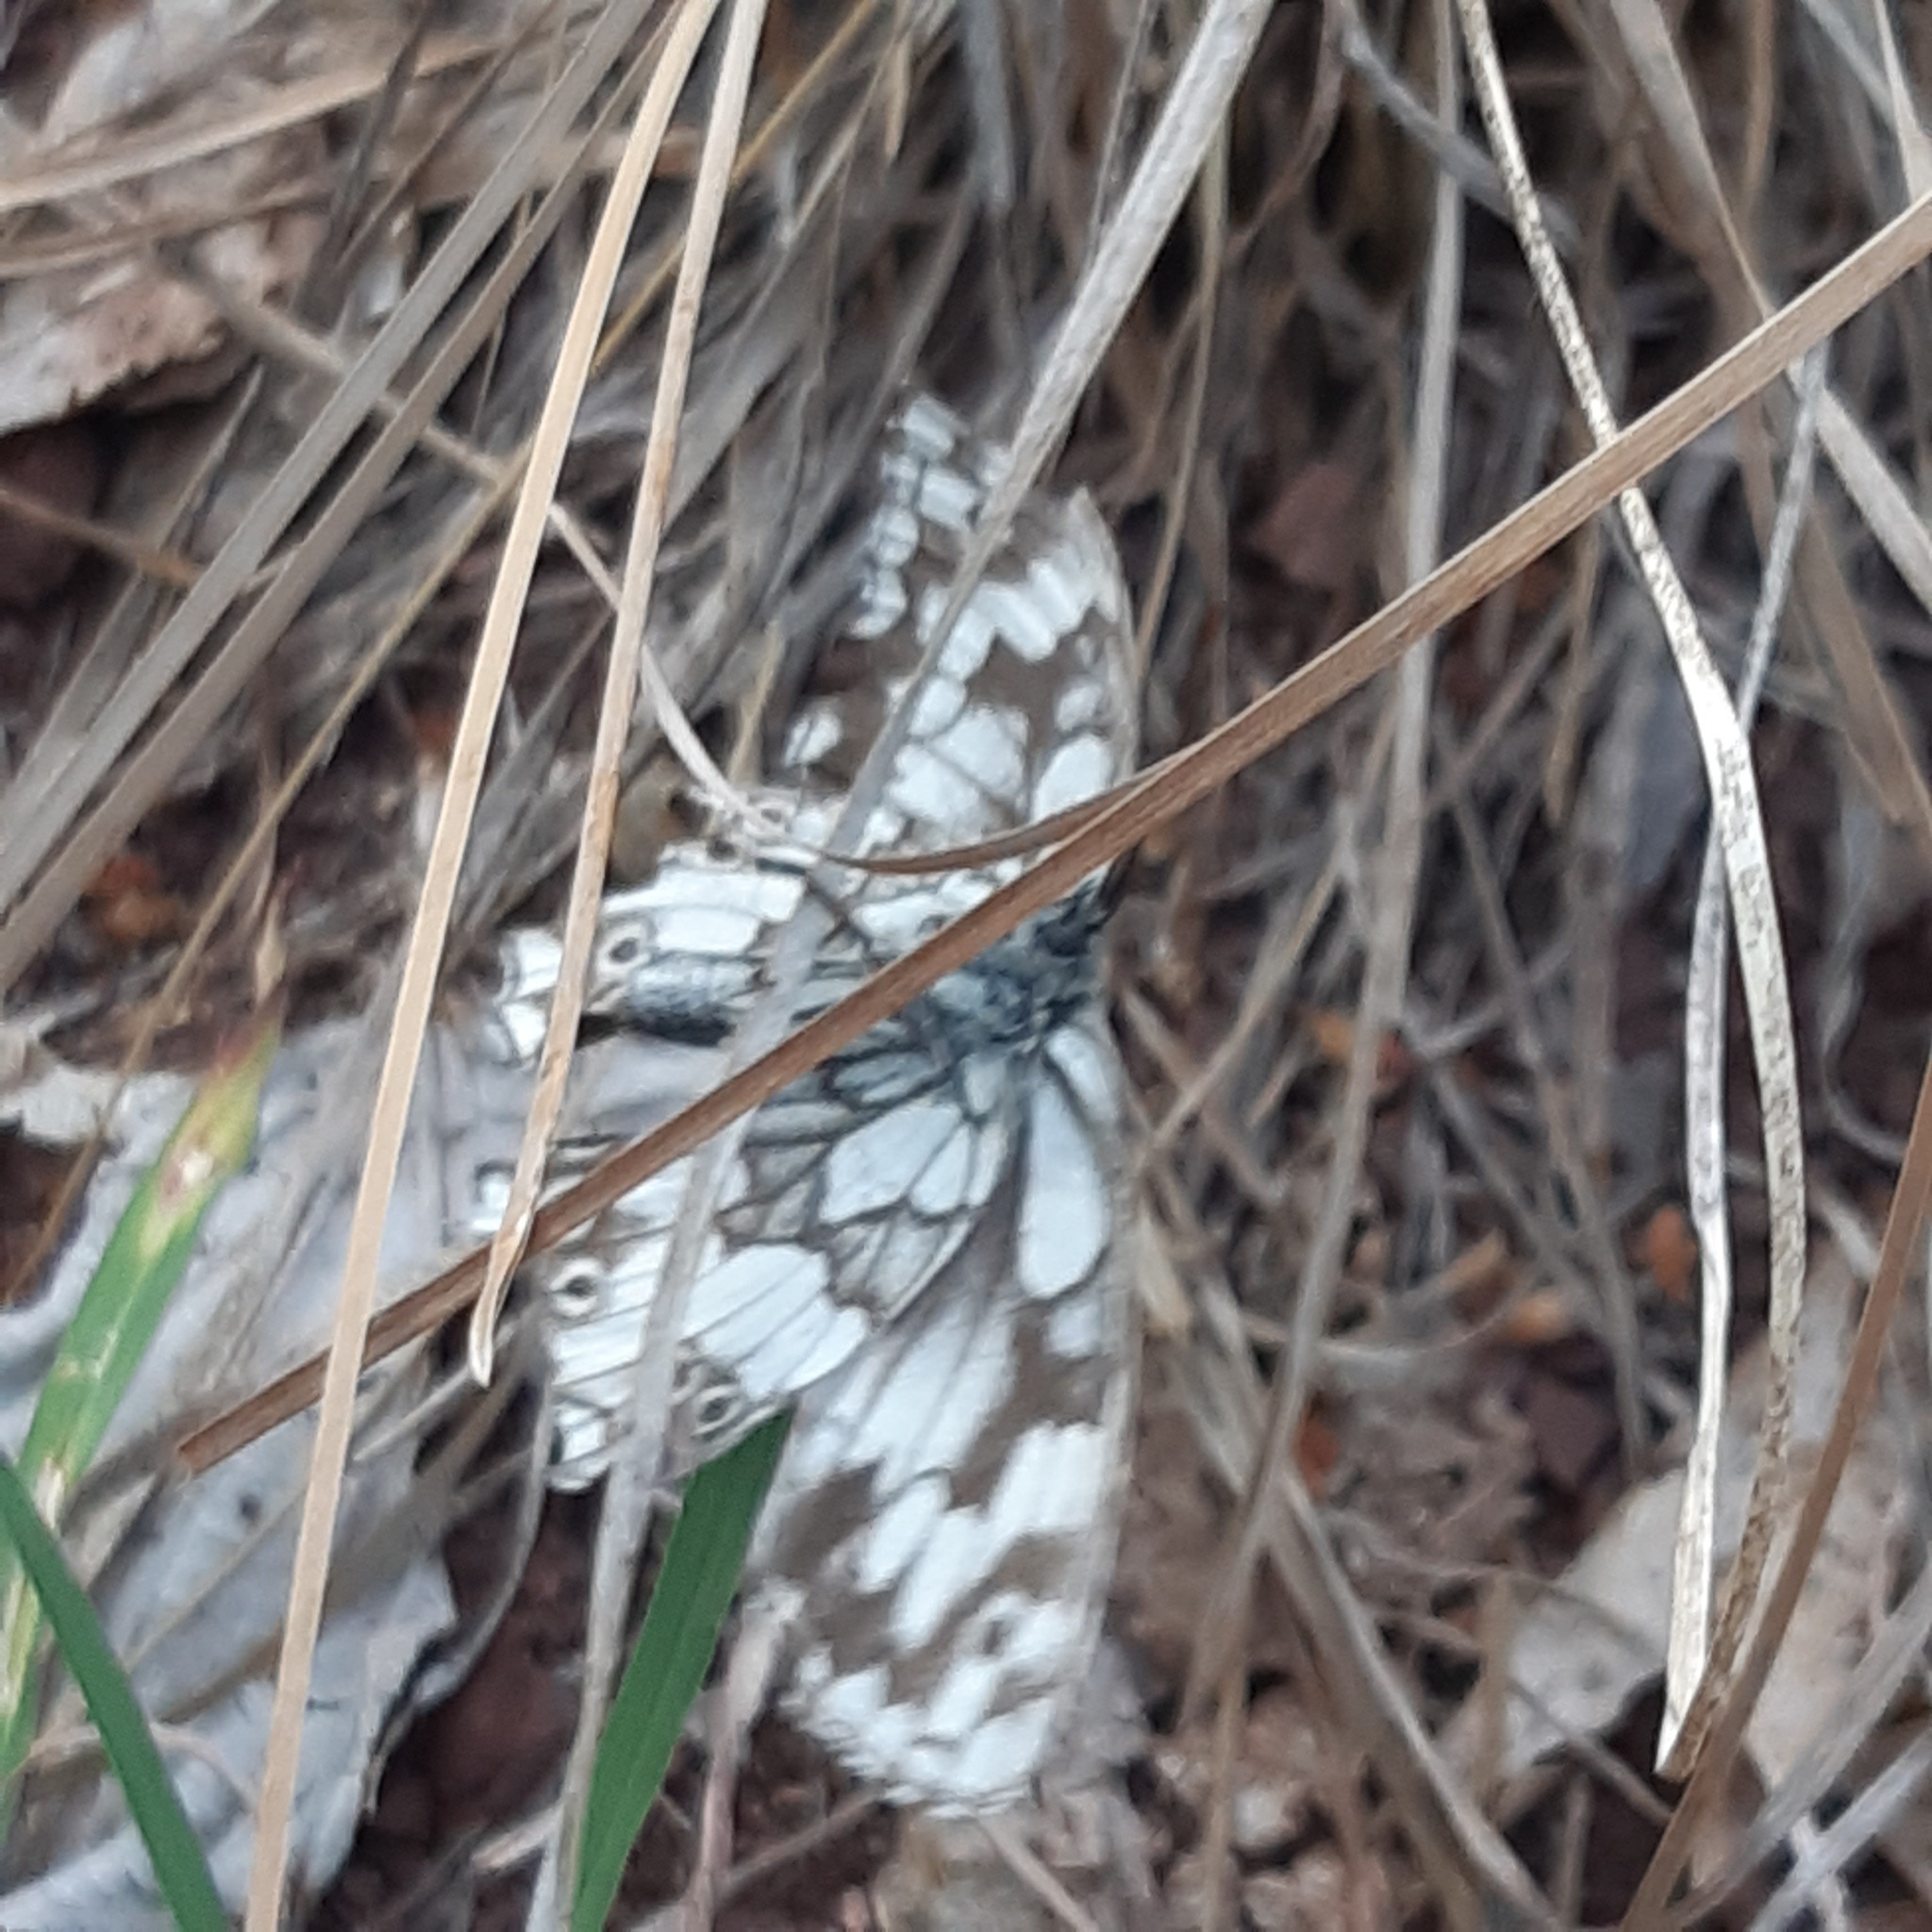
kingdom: Animalia
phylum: Arthropoda
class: Insecta
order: Lepidoptera
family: Nymphalidae
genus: Melanargia
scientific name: Melanargia galathea
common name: Marbled white
